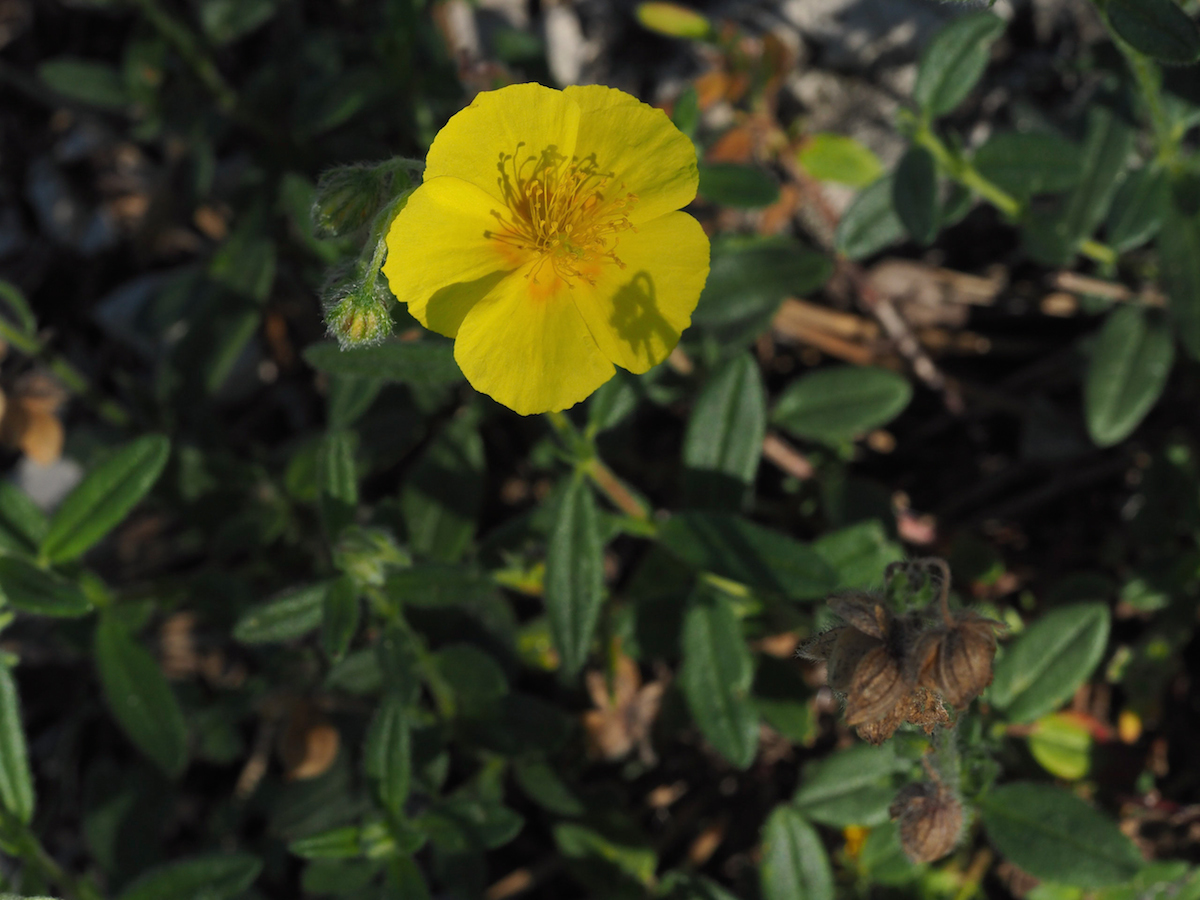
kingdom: Plantae
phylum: Tracheophyta
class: Magnoliopsida
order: Malvales
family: Cistaceae
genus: Helianthemum
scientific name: Helianthemum nummularium
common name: Common rock-rose
